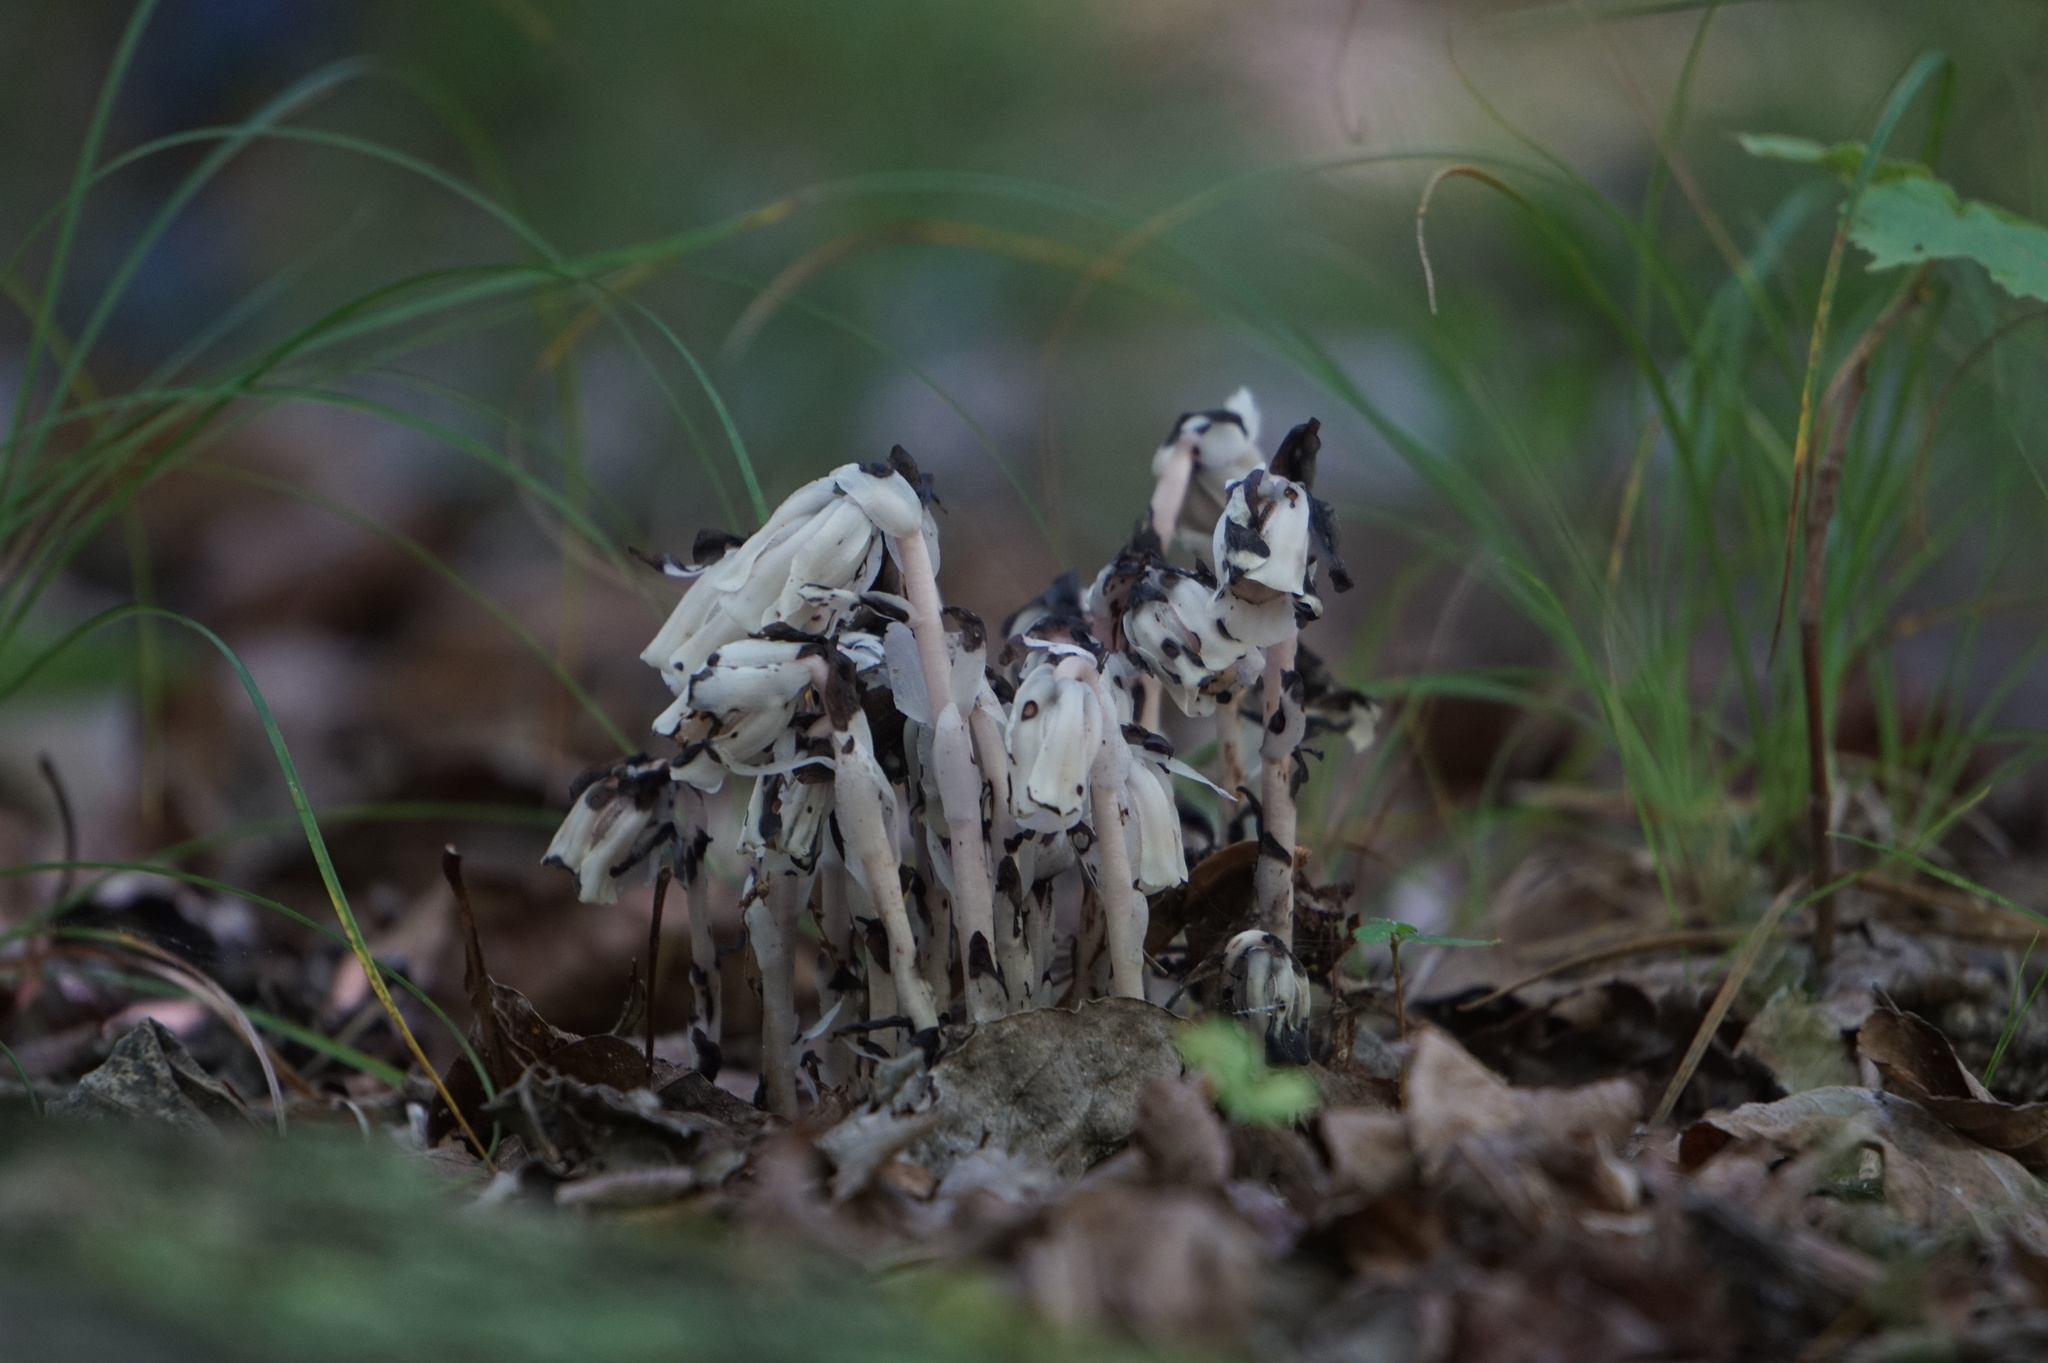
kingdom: Plantae
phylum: Tracheophyta
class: Magnoliopsida
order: Ericales
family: Ericaceae
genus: Monotropa
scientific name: Monotropa uniflora
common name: Convulsion root
